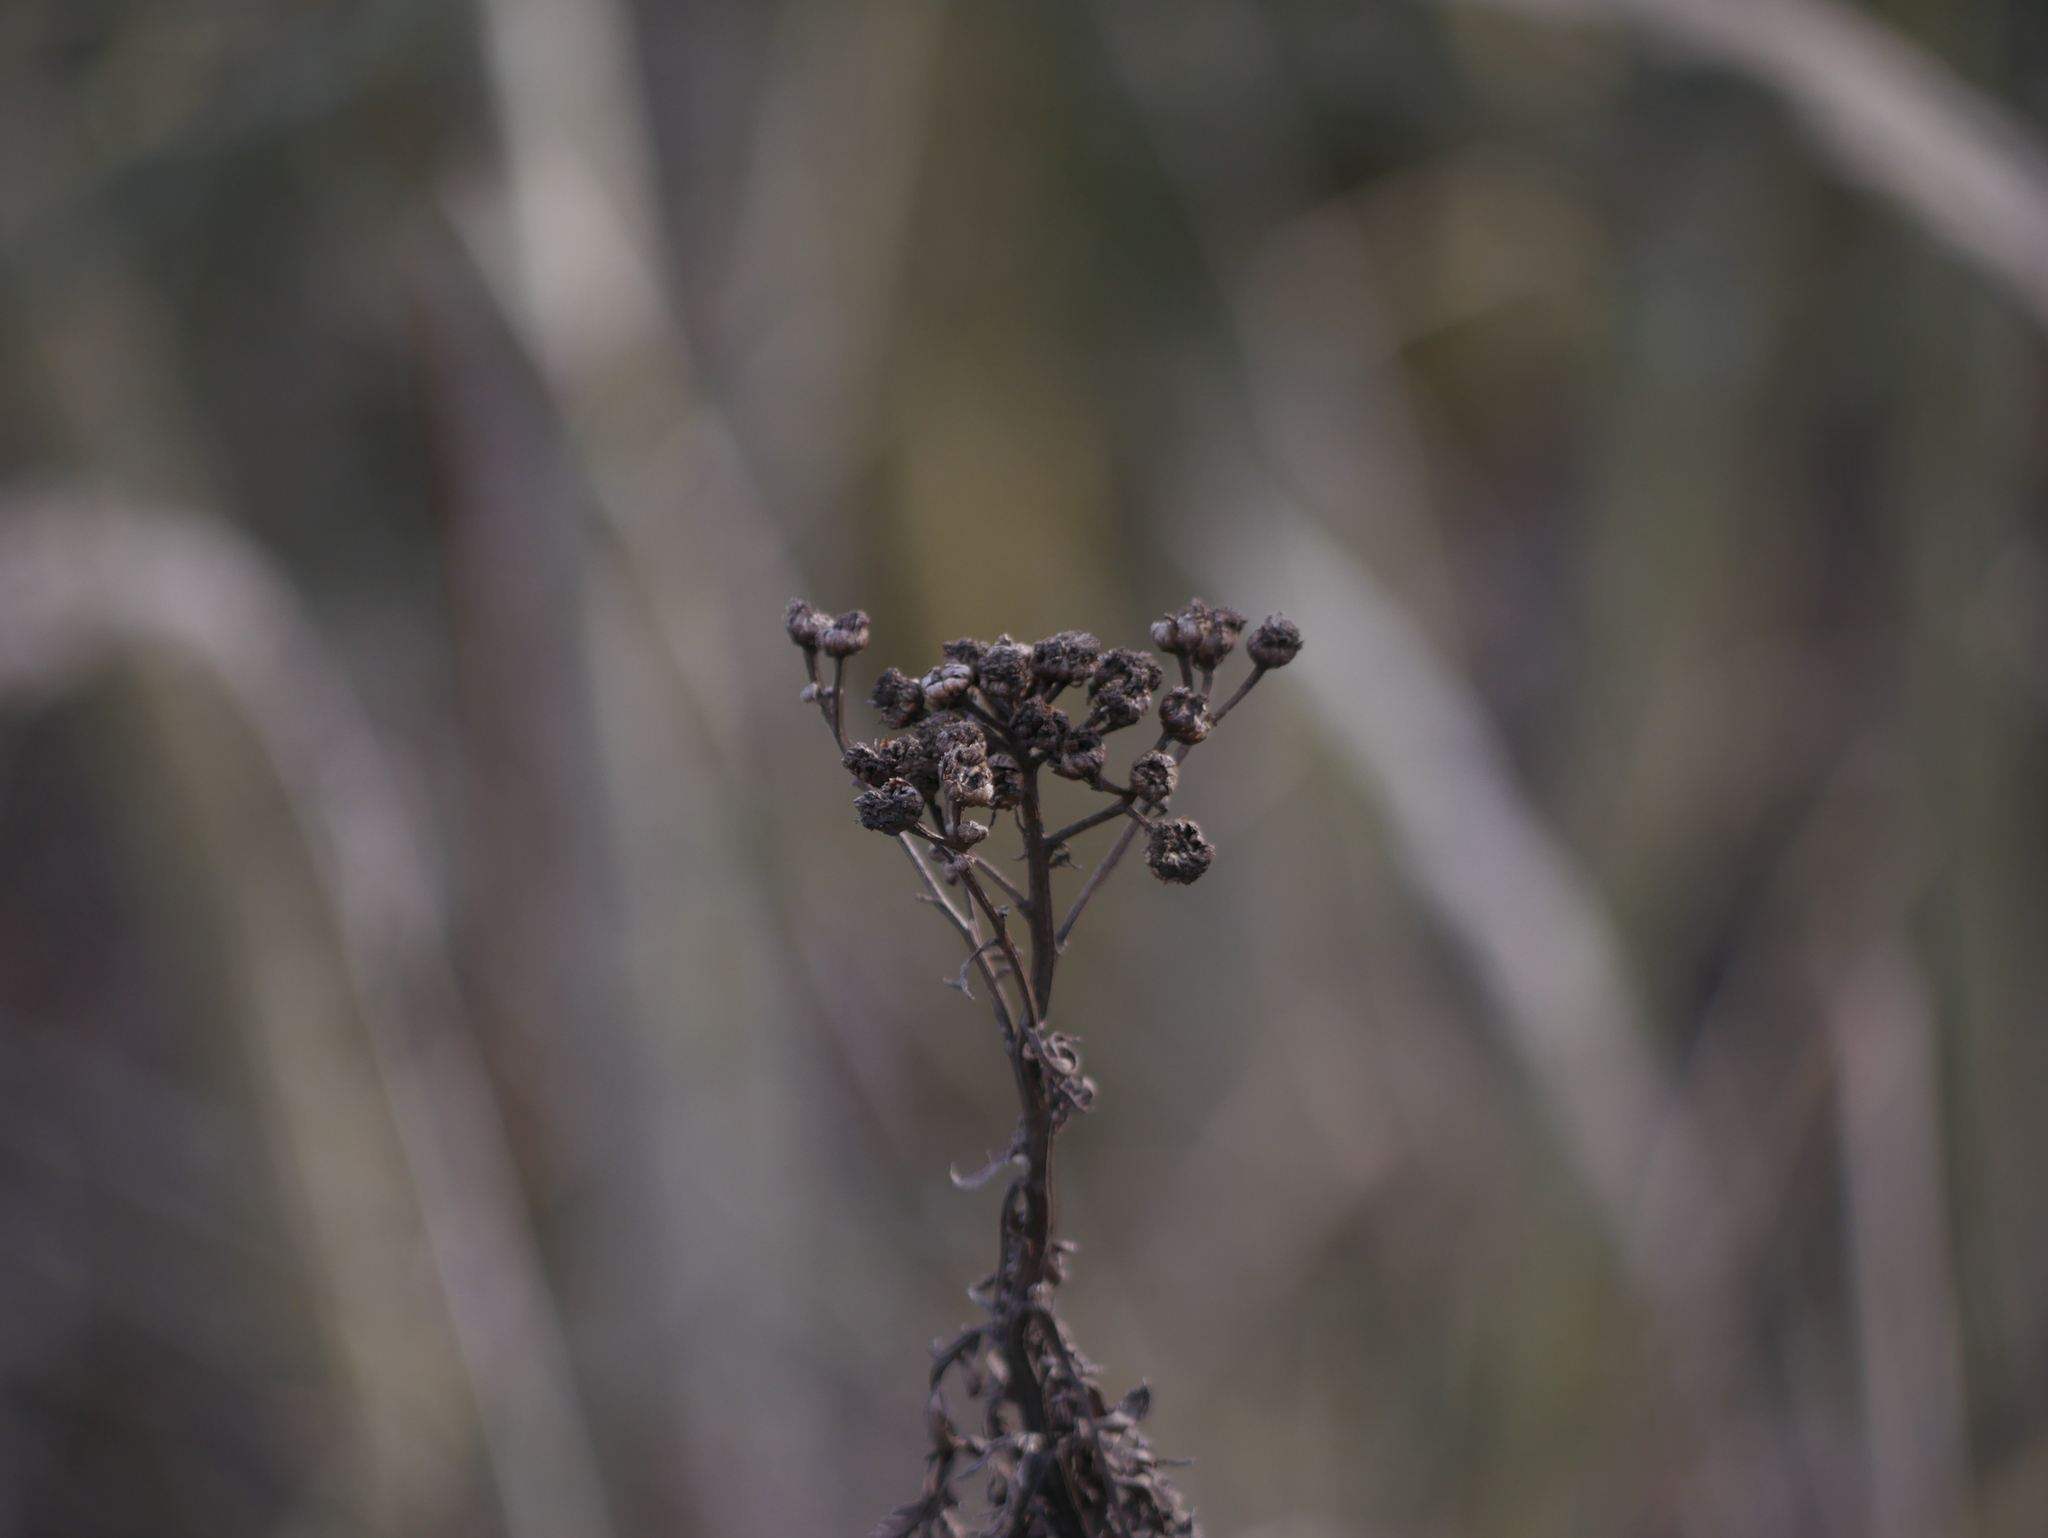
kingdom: Plantae
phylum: Tracheophyta
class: Magnoliopsida
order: Asterales
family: Asteraceae
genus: Tanacetum
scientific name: Tanacetum vulgare
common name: Common tansy
